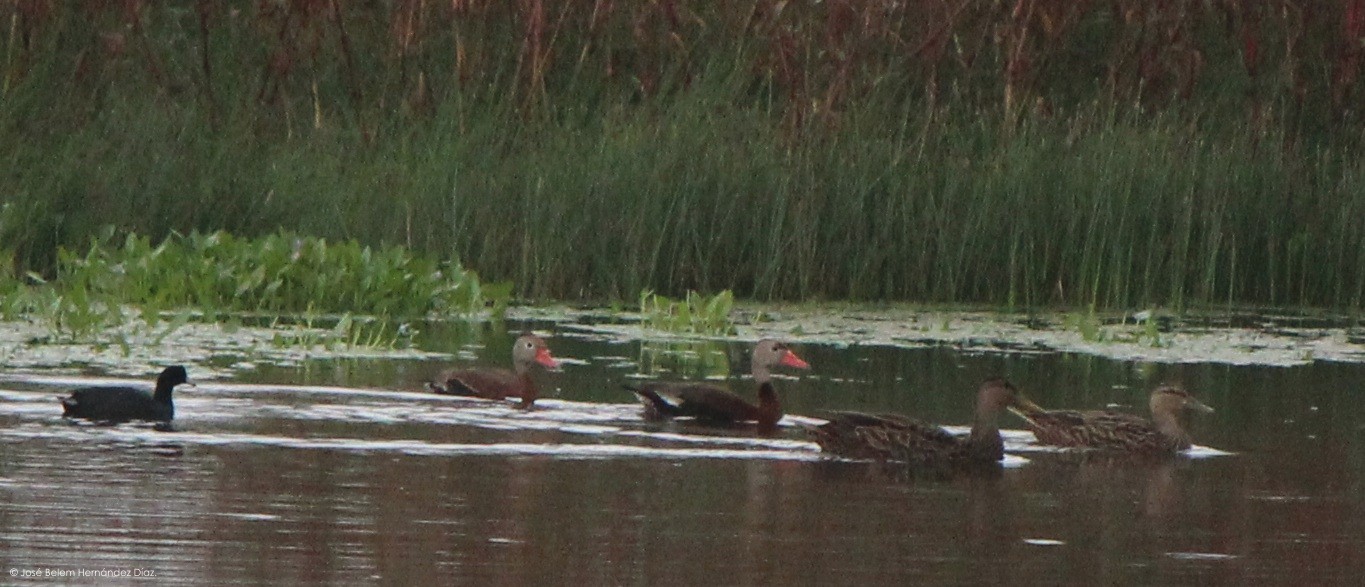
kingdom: Animalia
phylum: Chordata
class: Aves
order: Anseriformes
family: Anatidae
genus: Dendrocygna
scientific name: Dendrocygna autumnalis
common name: Black-bellied whistling duck
